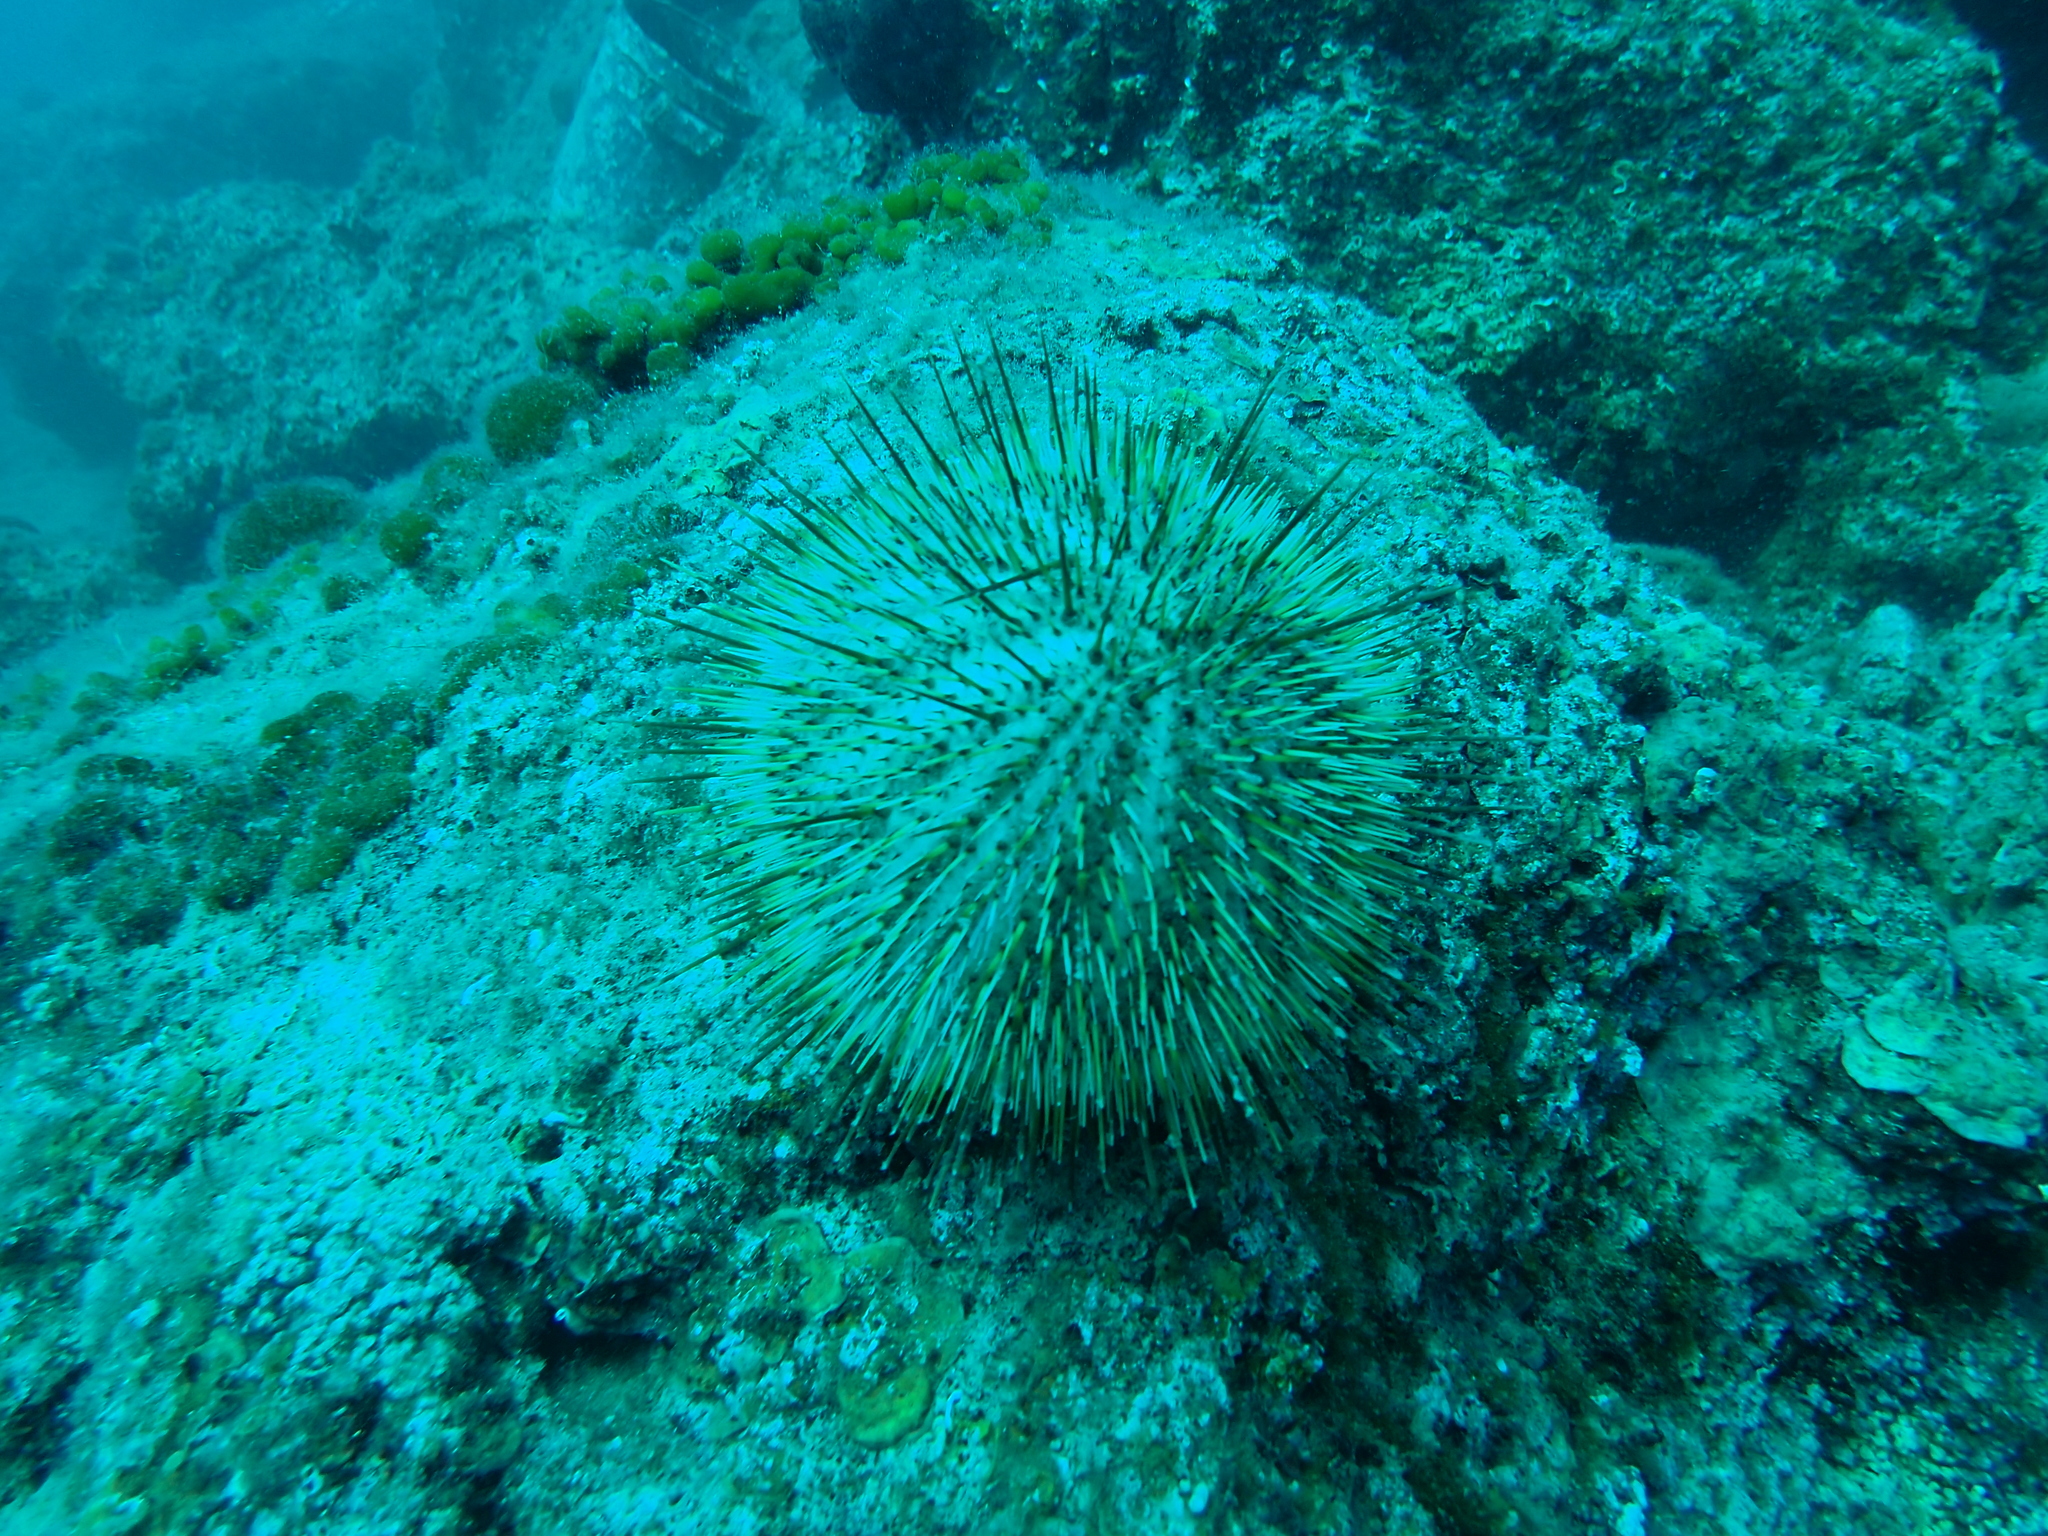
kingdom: Animalia
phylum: Echinodermata
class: Echinoidea
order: Camarodonta
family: Echinidae
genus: Echinus
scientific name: Echinus melo
